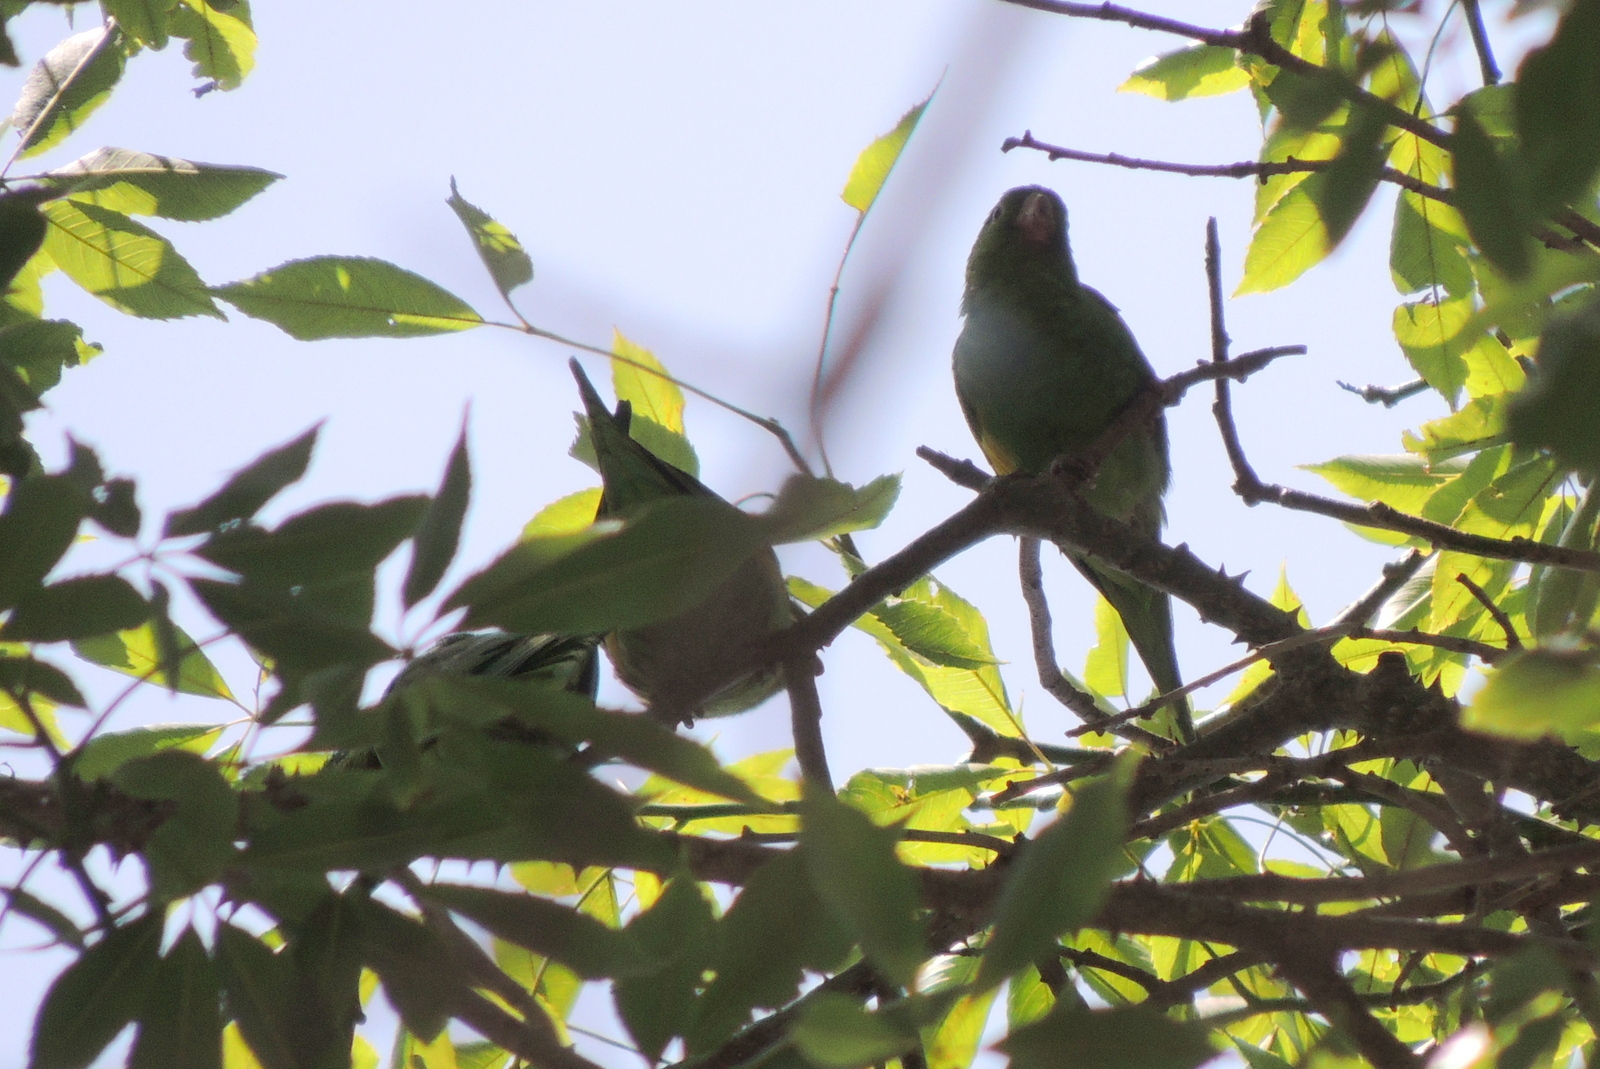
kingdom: Animalia
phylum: Chordata
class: Aves
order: Psittaciformes
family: Psittacidae
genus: Brotogeris
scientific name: Brotogeris chiriri
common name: Yellow-chevroned parakeet
